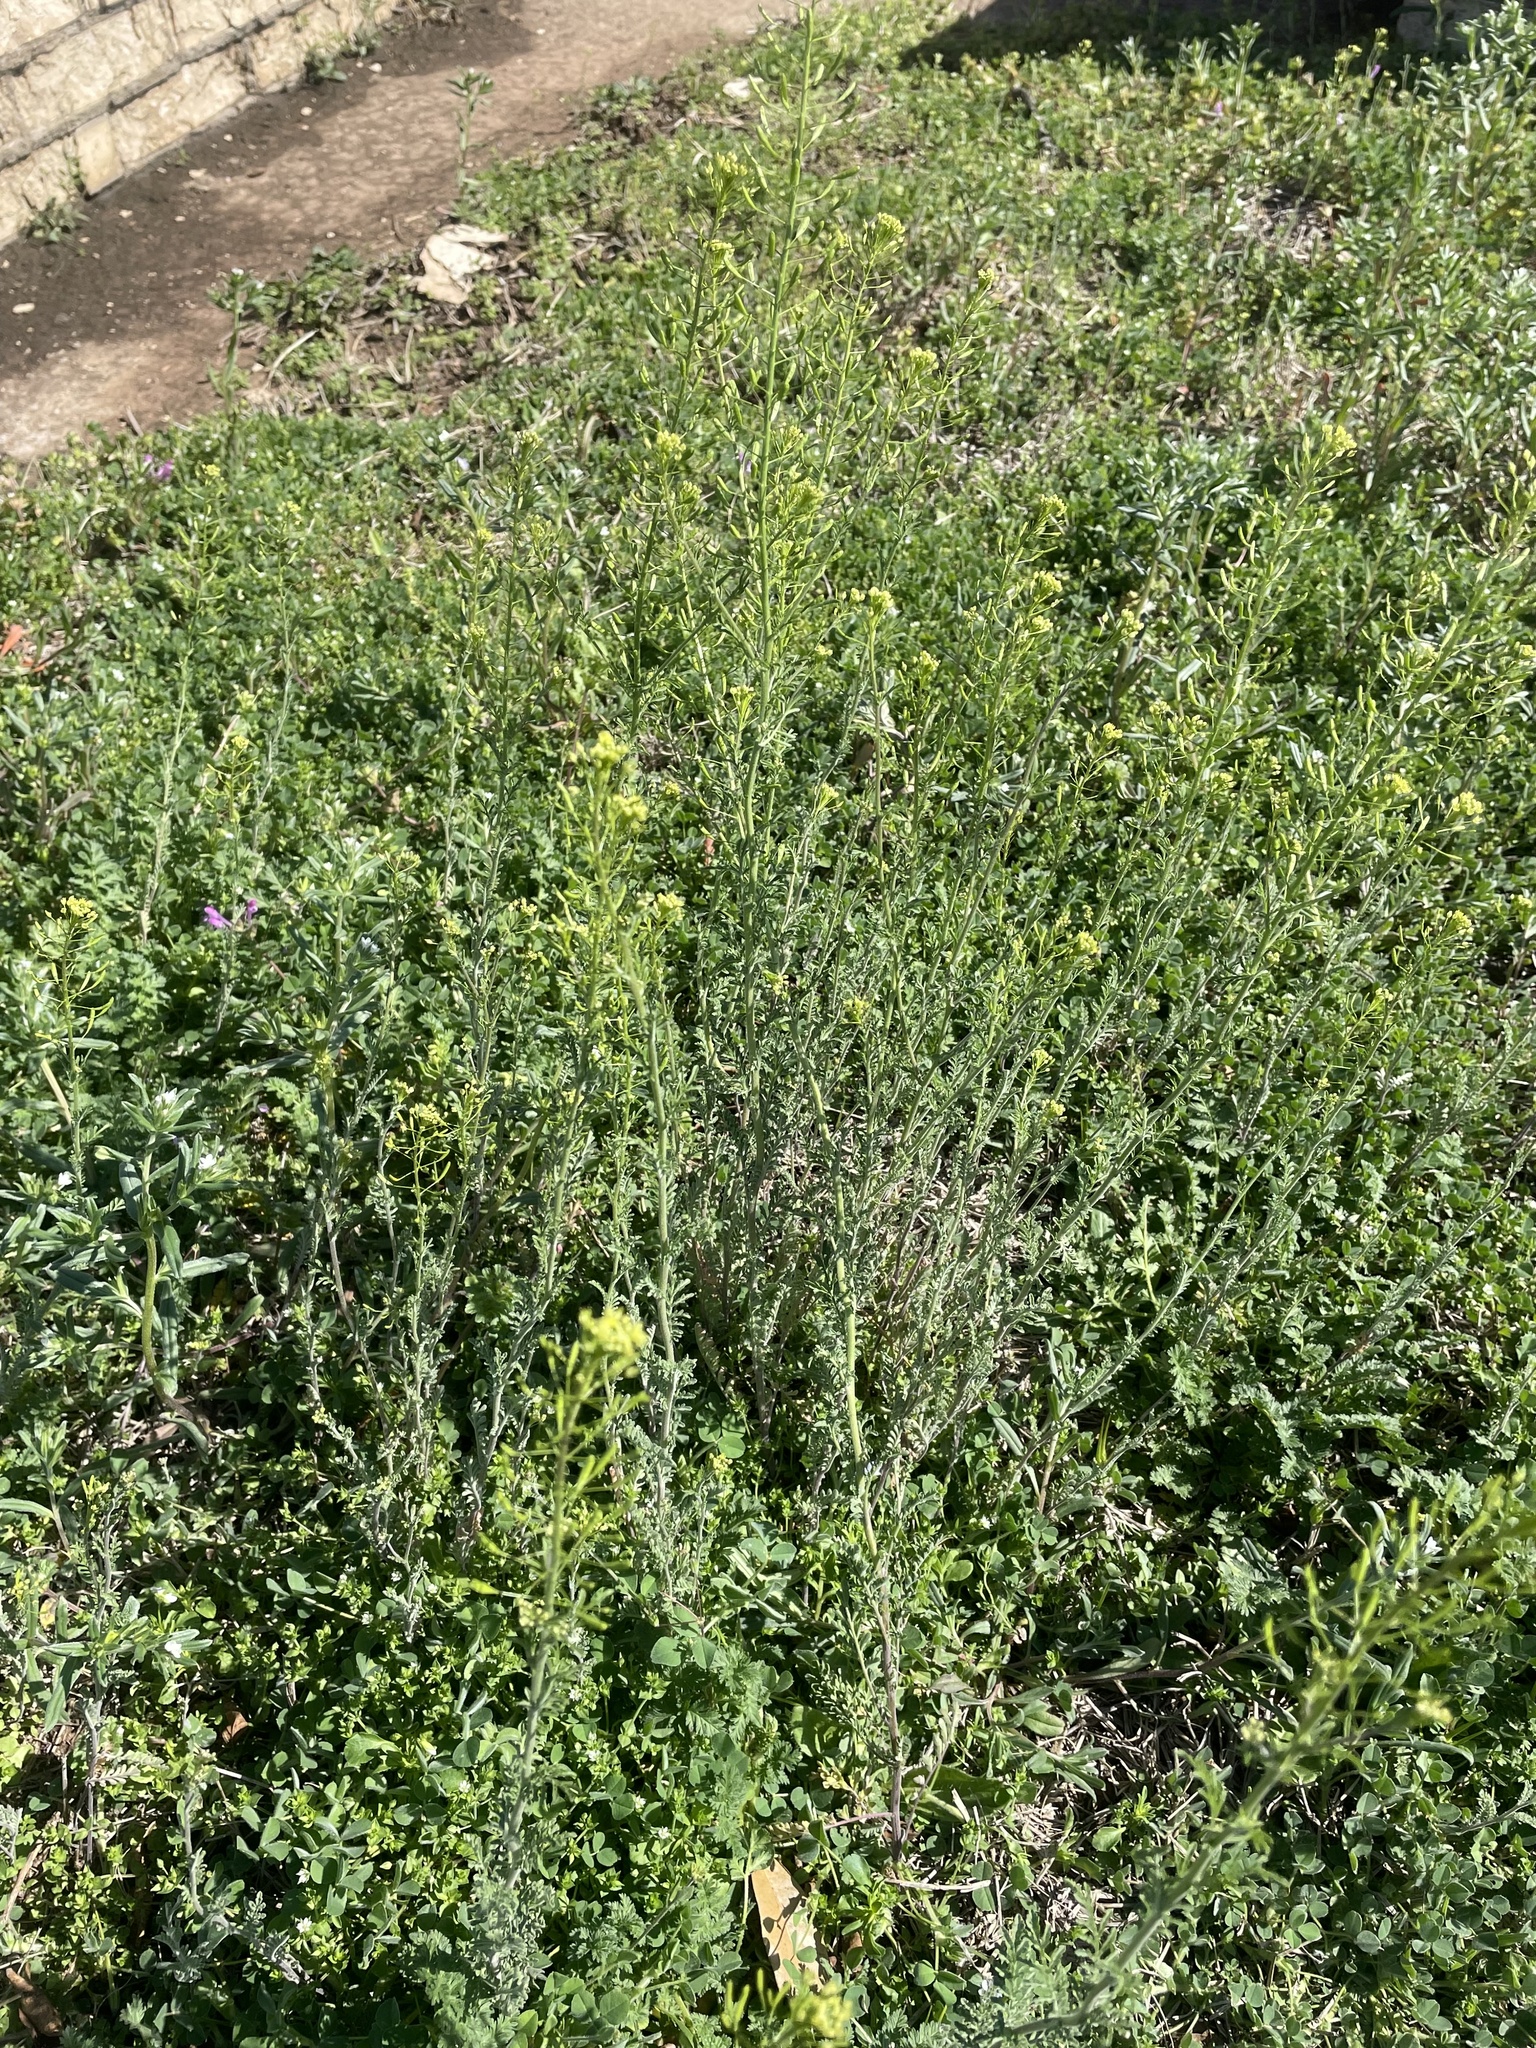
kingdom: Plantae
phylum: Tracheophyta
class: Magnoliopsida
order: Brassicales
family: Brassicaceae
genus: Descurainia
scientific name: Descurainia pinnata
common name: Western tansy mustard
